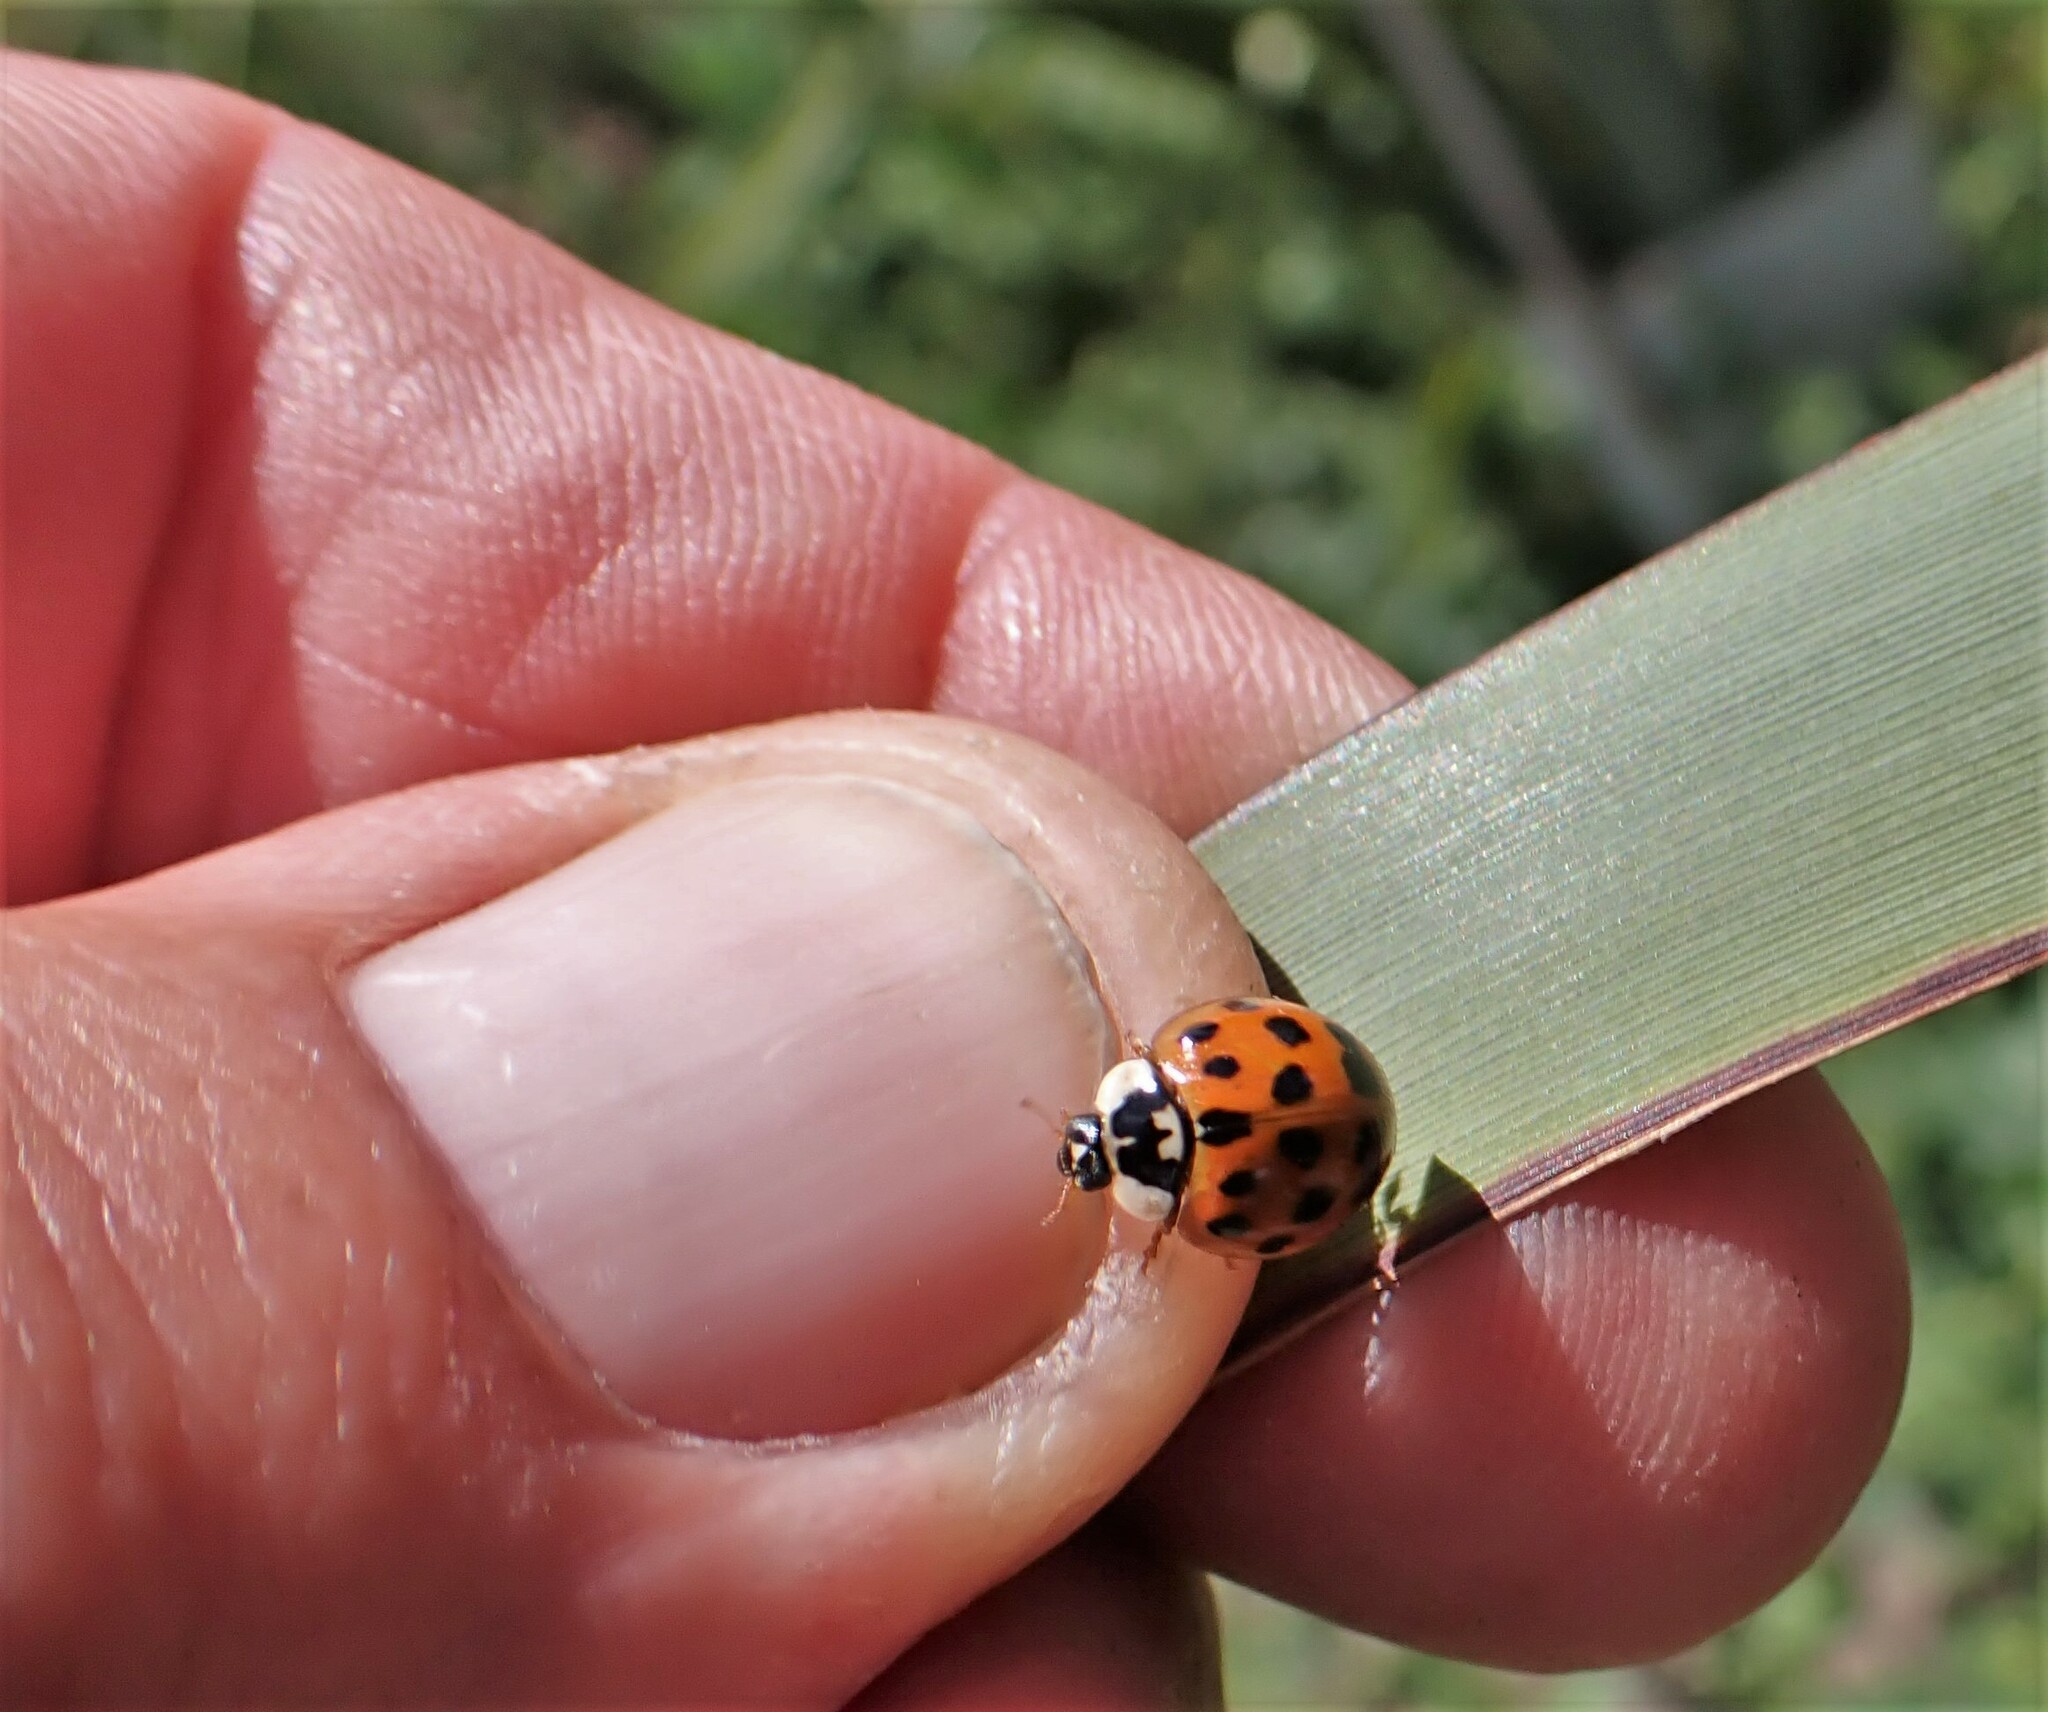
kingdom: Animalia
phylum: Arthropoda
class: Insecta
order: Coleoptera
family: Coccinellidae
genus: Harmonia
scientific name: Harmonia axyridis
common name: Harlequin ladybird
